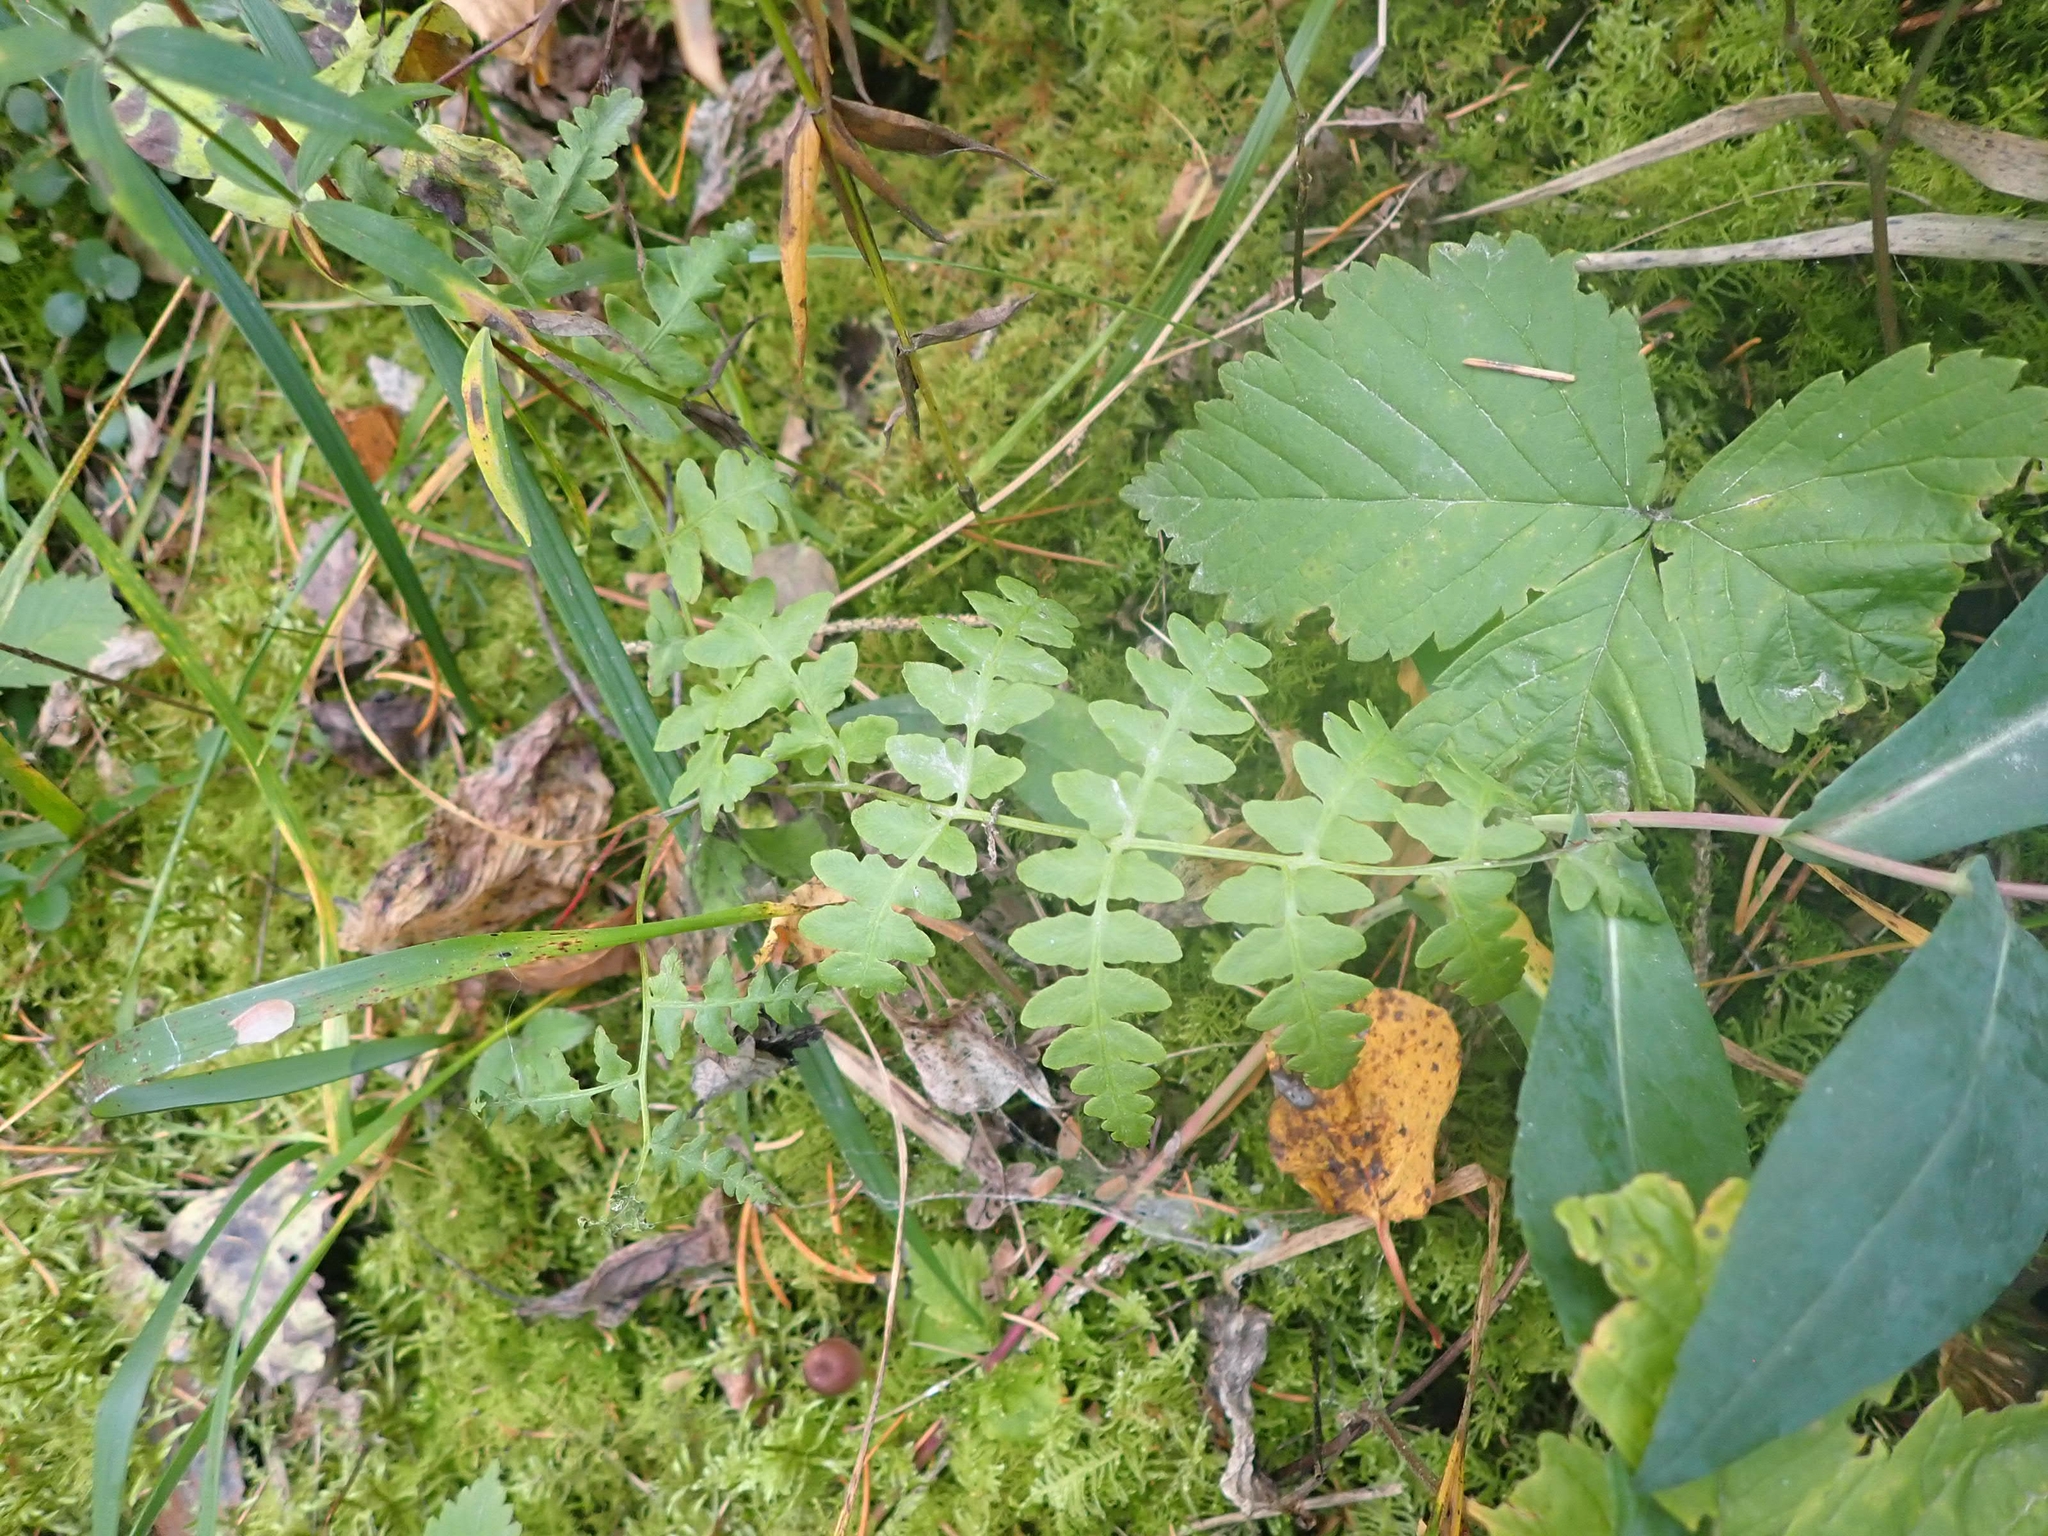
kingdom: Plantae
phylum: Tracheophyta
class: Polypodiopsida
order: Polypodiales
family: Dennstaedtiaceae
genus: Pteridium
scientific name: Pteridium aquilinum
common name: Bracken
